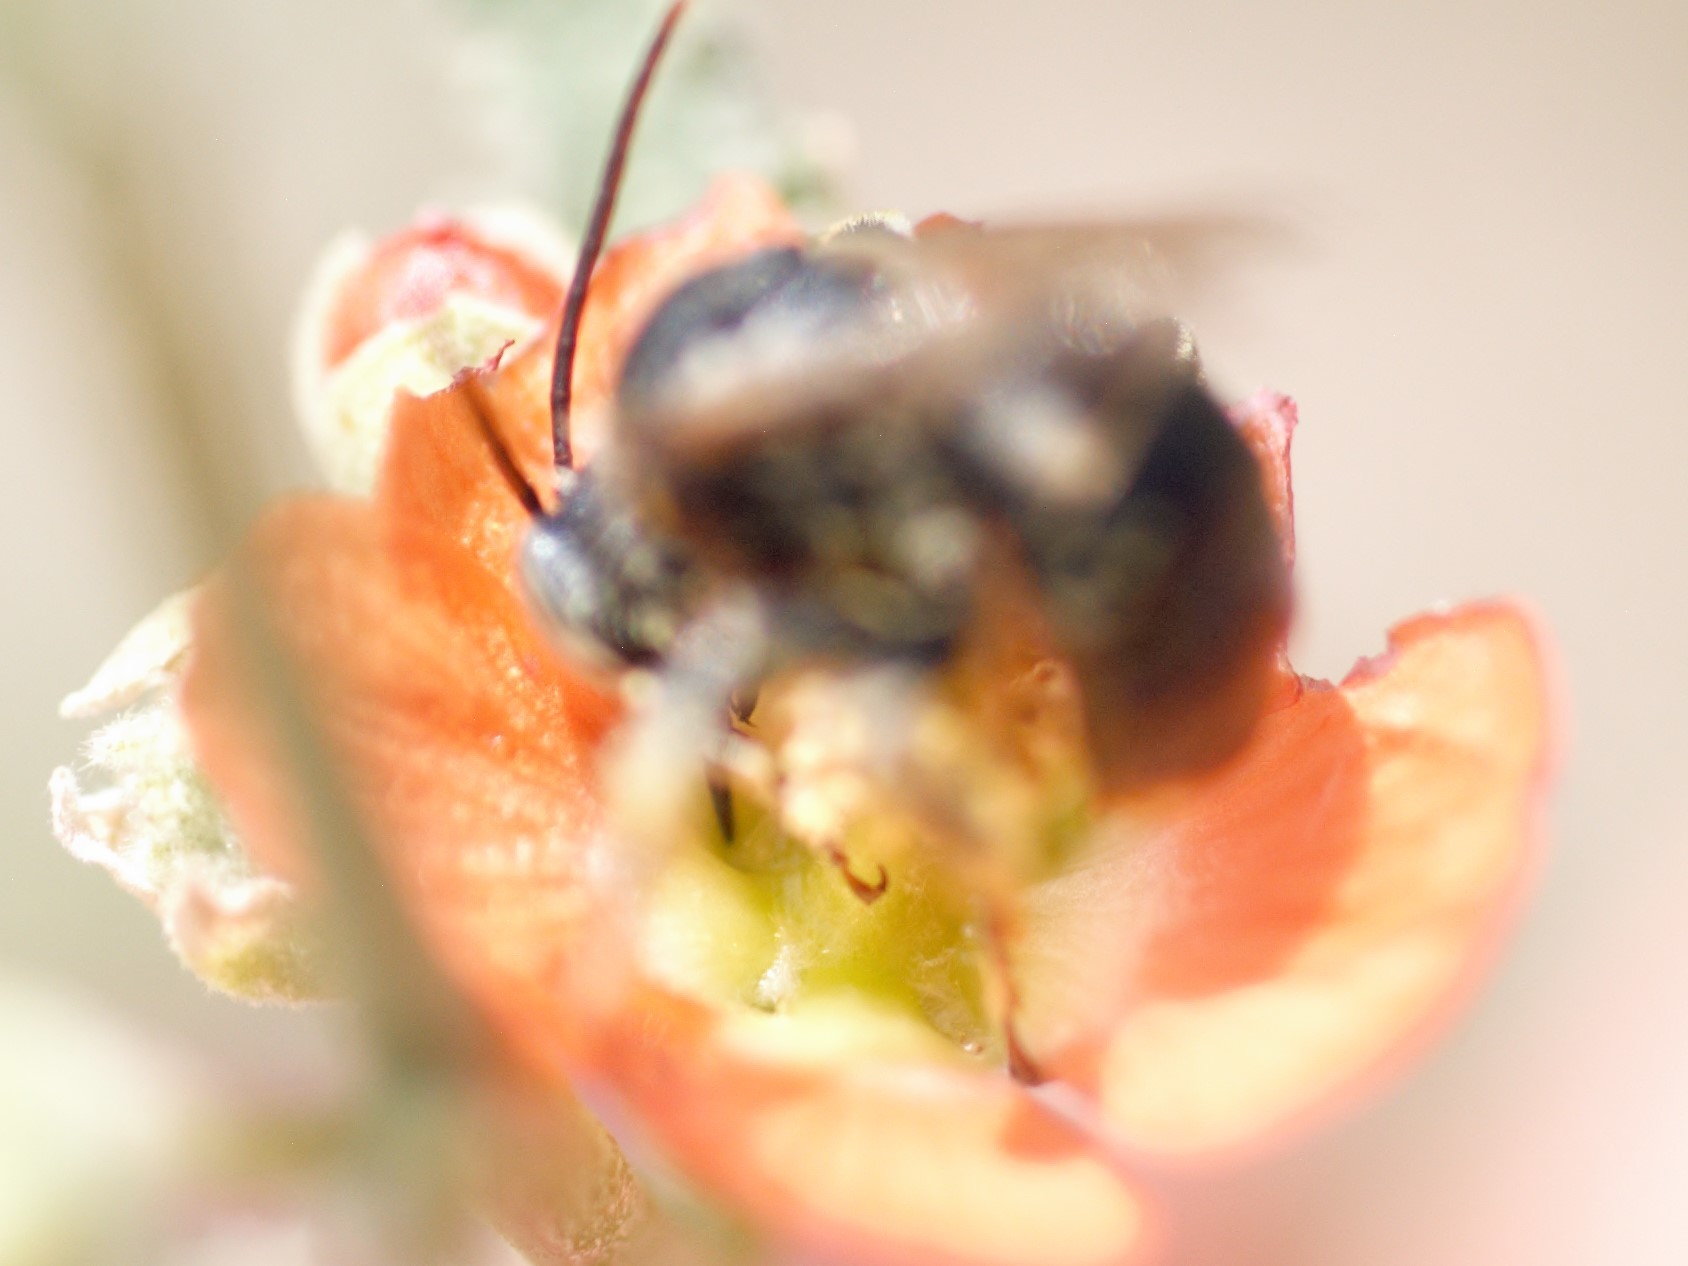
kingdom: Animalia
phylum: Arthropoda
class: Insecta
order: Hymenoptera
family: Apidae
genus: Melissodes
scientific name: Melissodes
